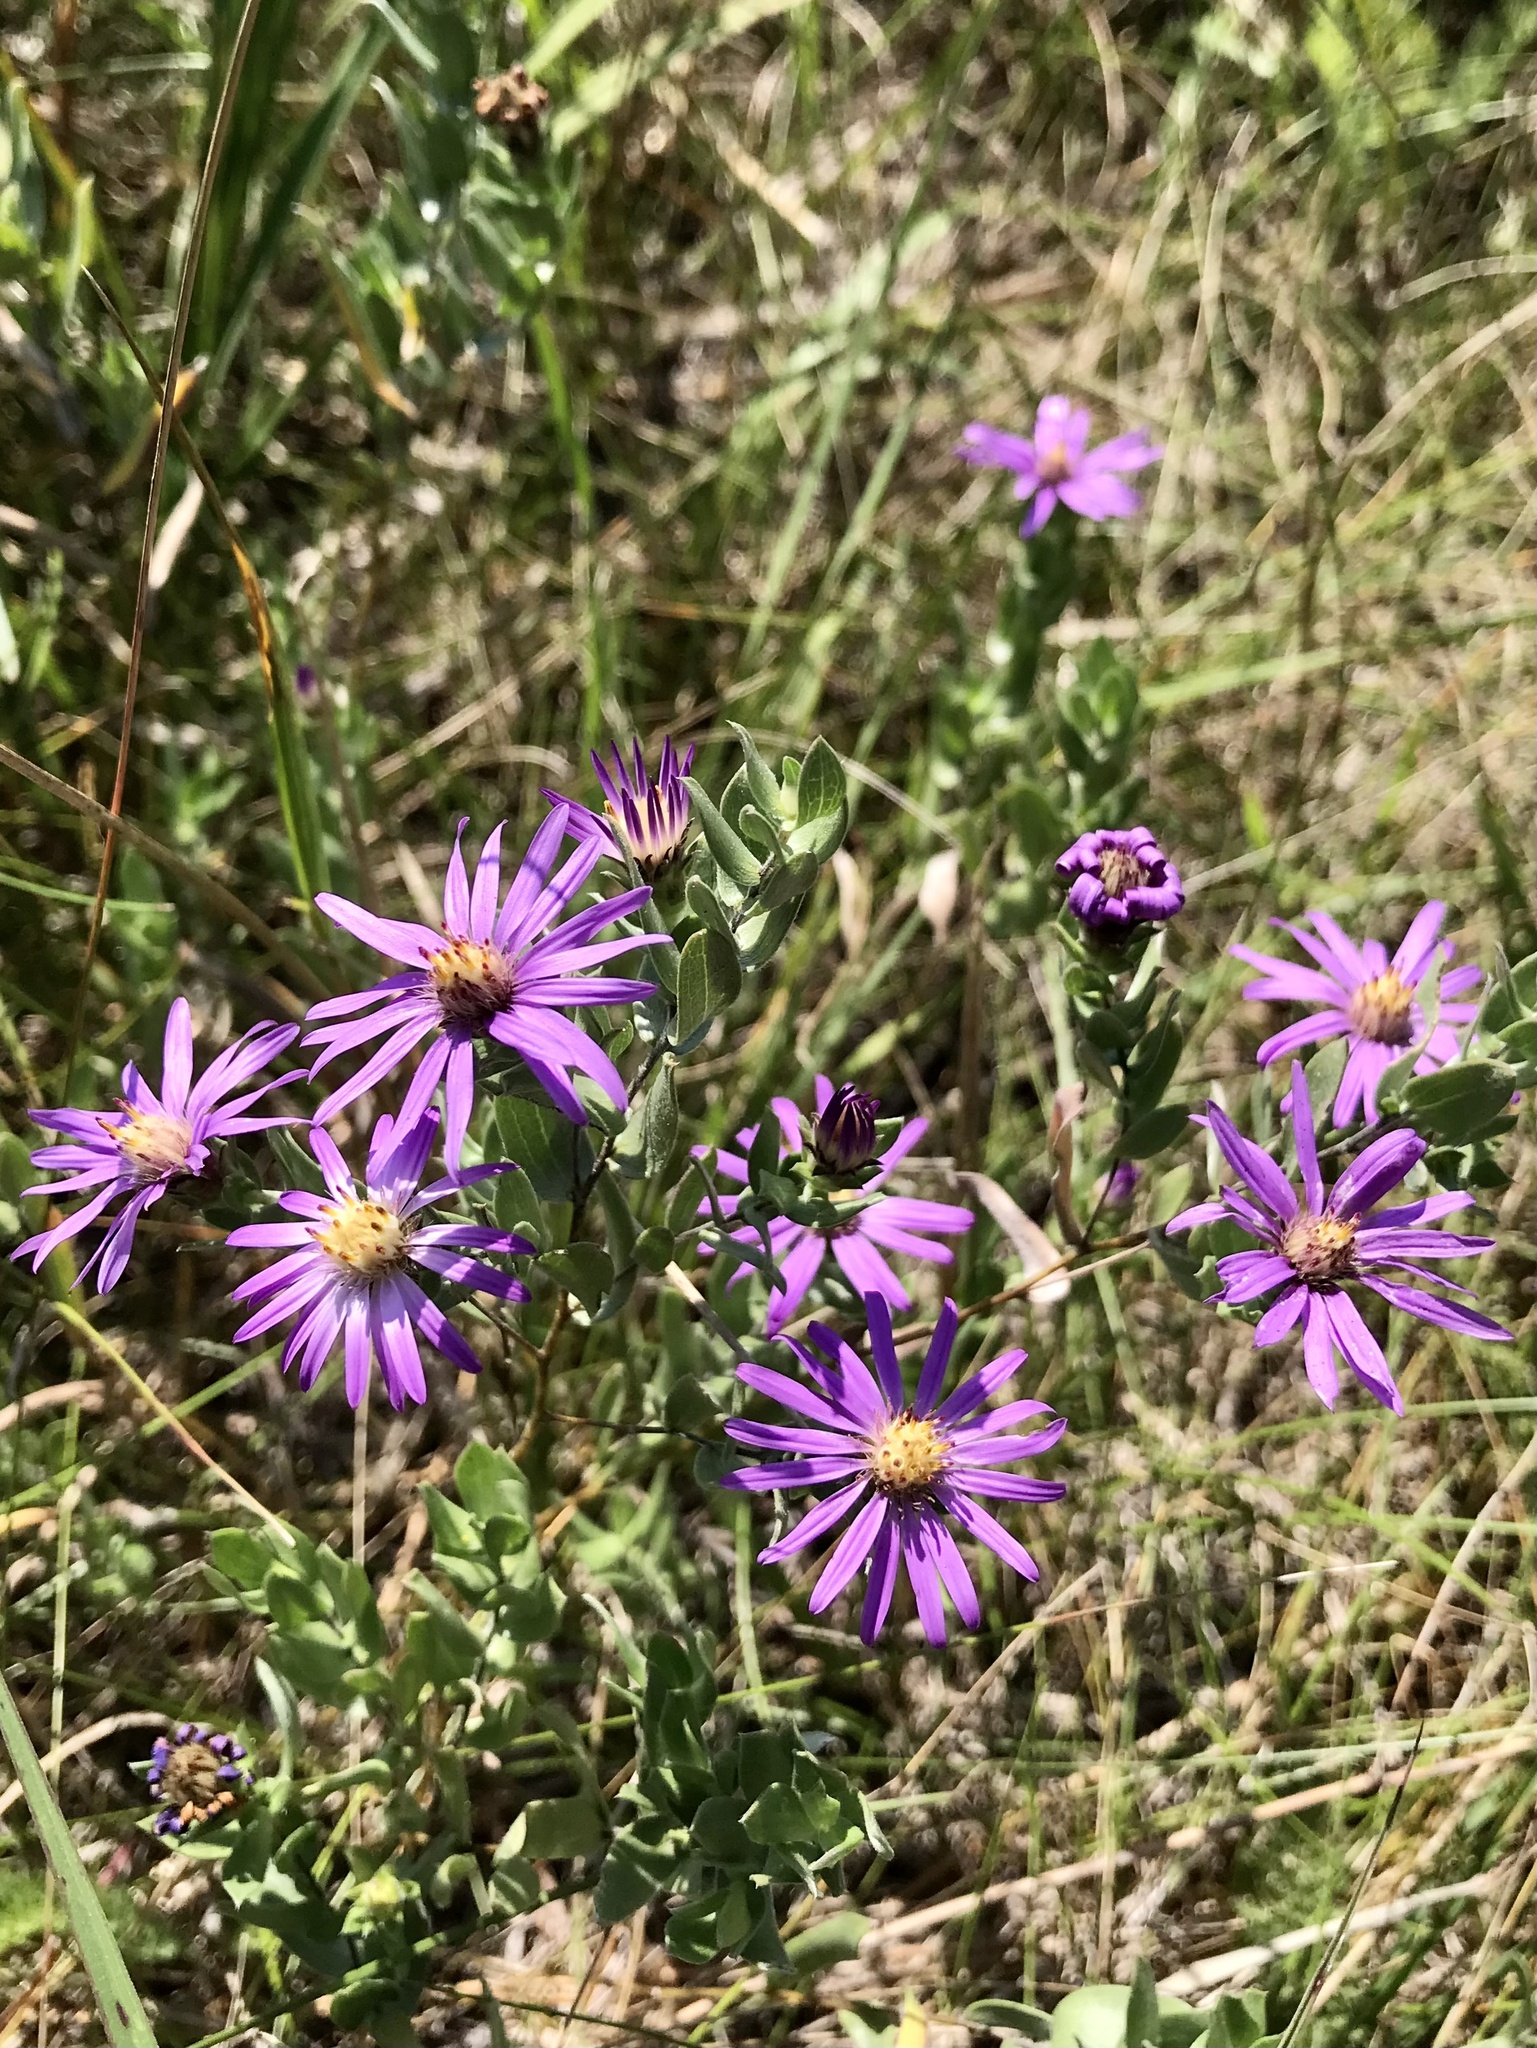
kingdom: Plantae
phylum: Tracheophyta
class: Magnoliopsida
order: Asterales
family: Asteraceae
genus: Symphyotrichum
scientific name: Symphyotrichum sericeum
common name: Silky aster
